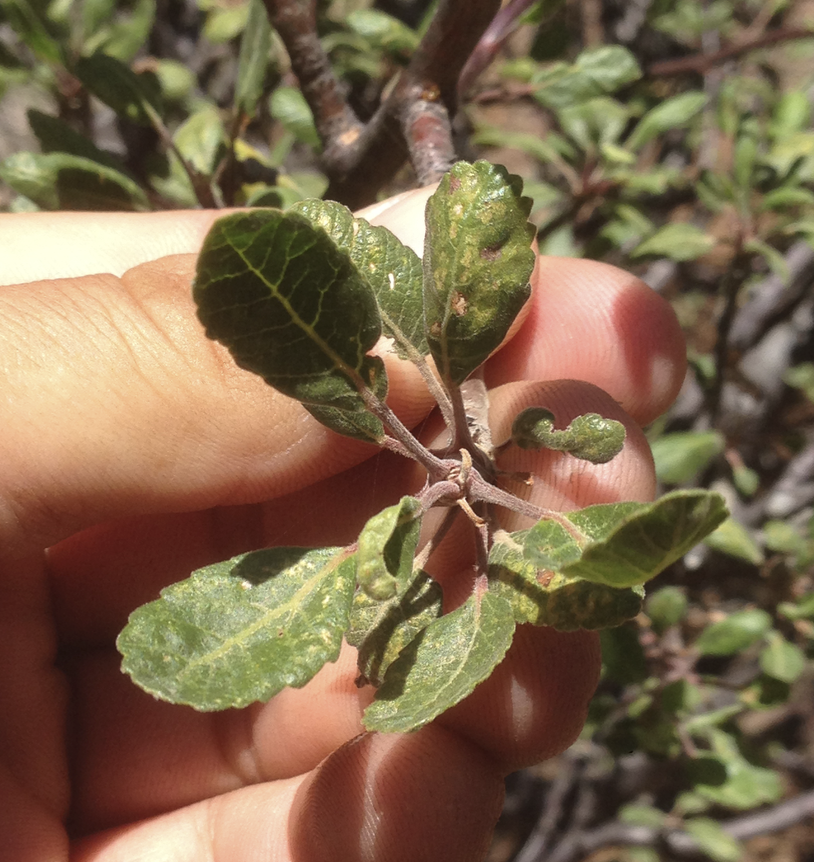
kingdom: Plantae
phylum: Tracheophyta
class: Magnoliopsida
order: Sapindales
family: Burseraceae
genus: Bursera
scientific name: Bursera hindsiana
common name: Red elephant tree
